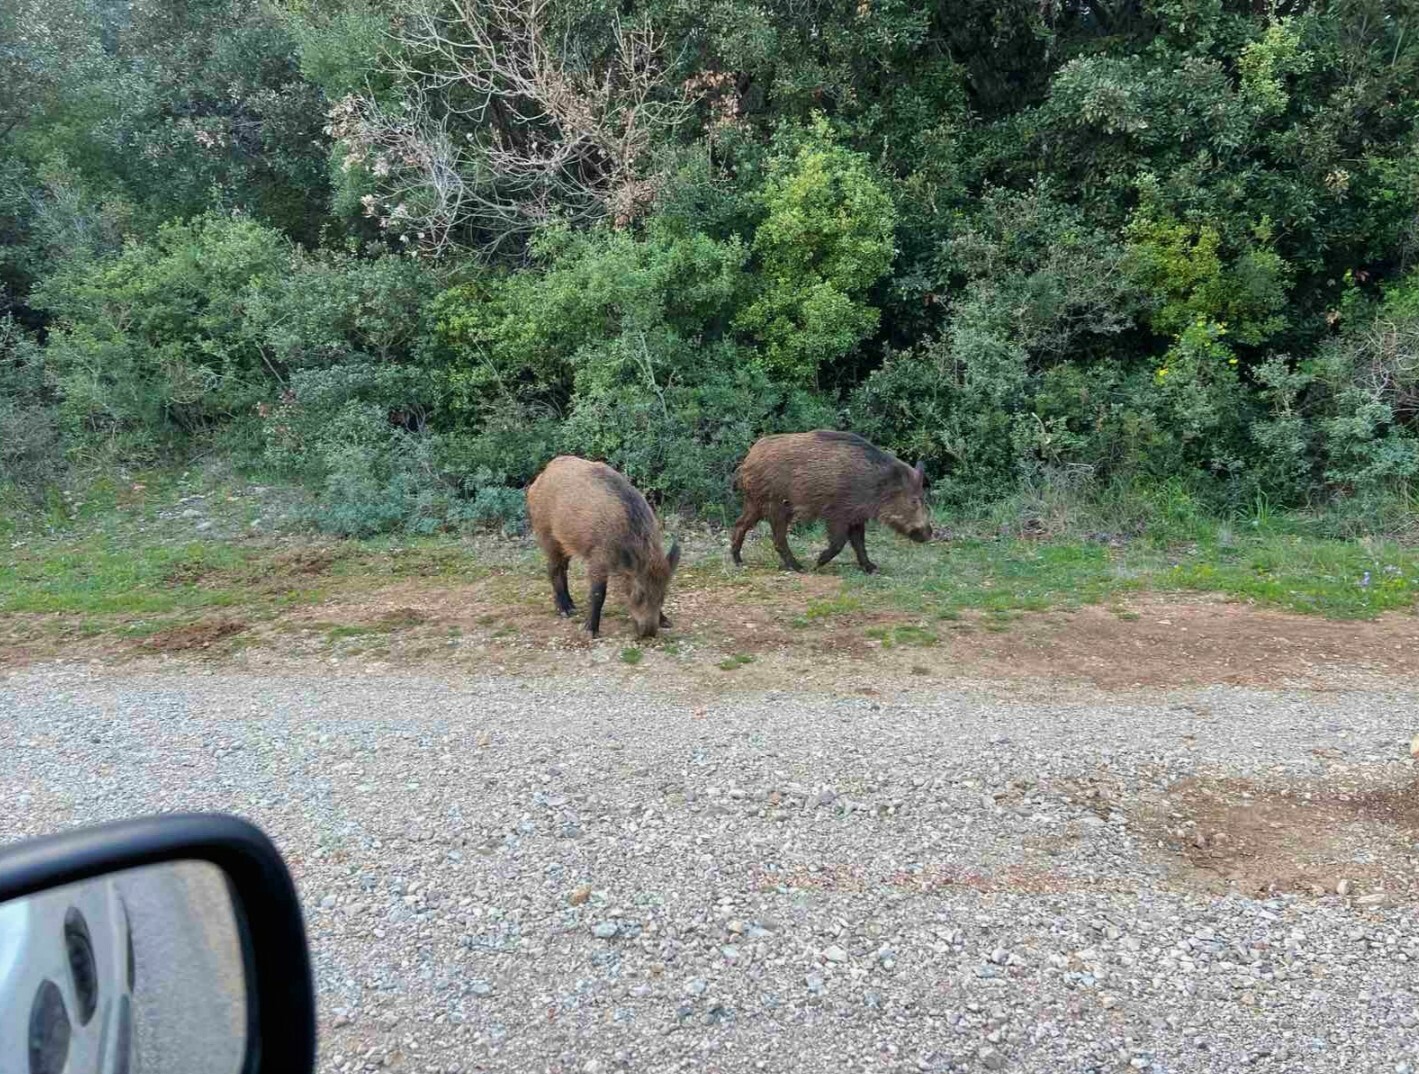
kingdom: Animalia
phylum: Chordata
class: Mammalia
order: Artiodactyla
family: Suidae
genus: Sus
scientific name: Sus scrofa
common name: Wild boar
